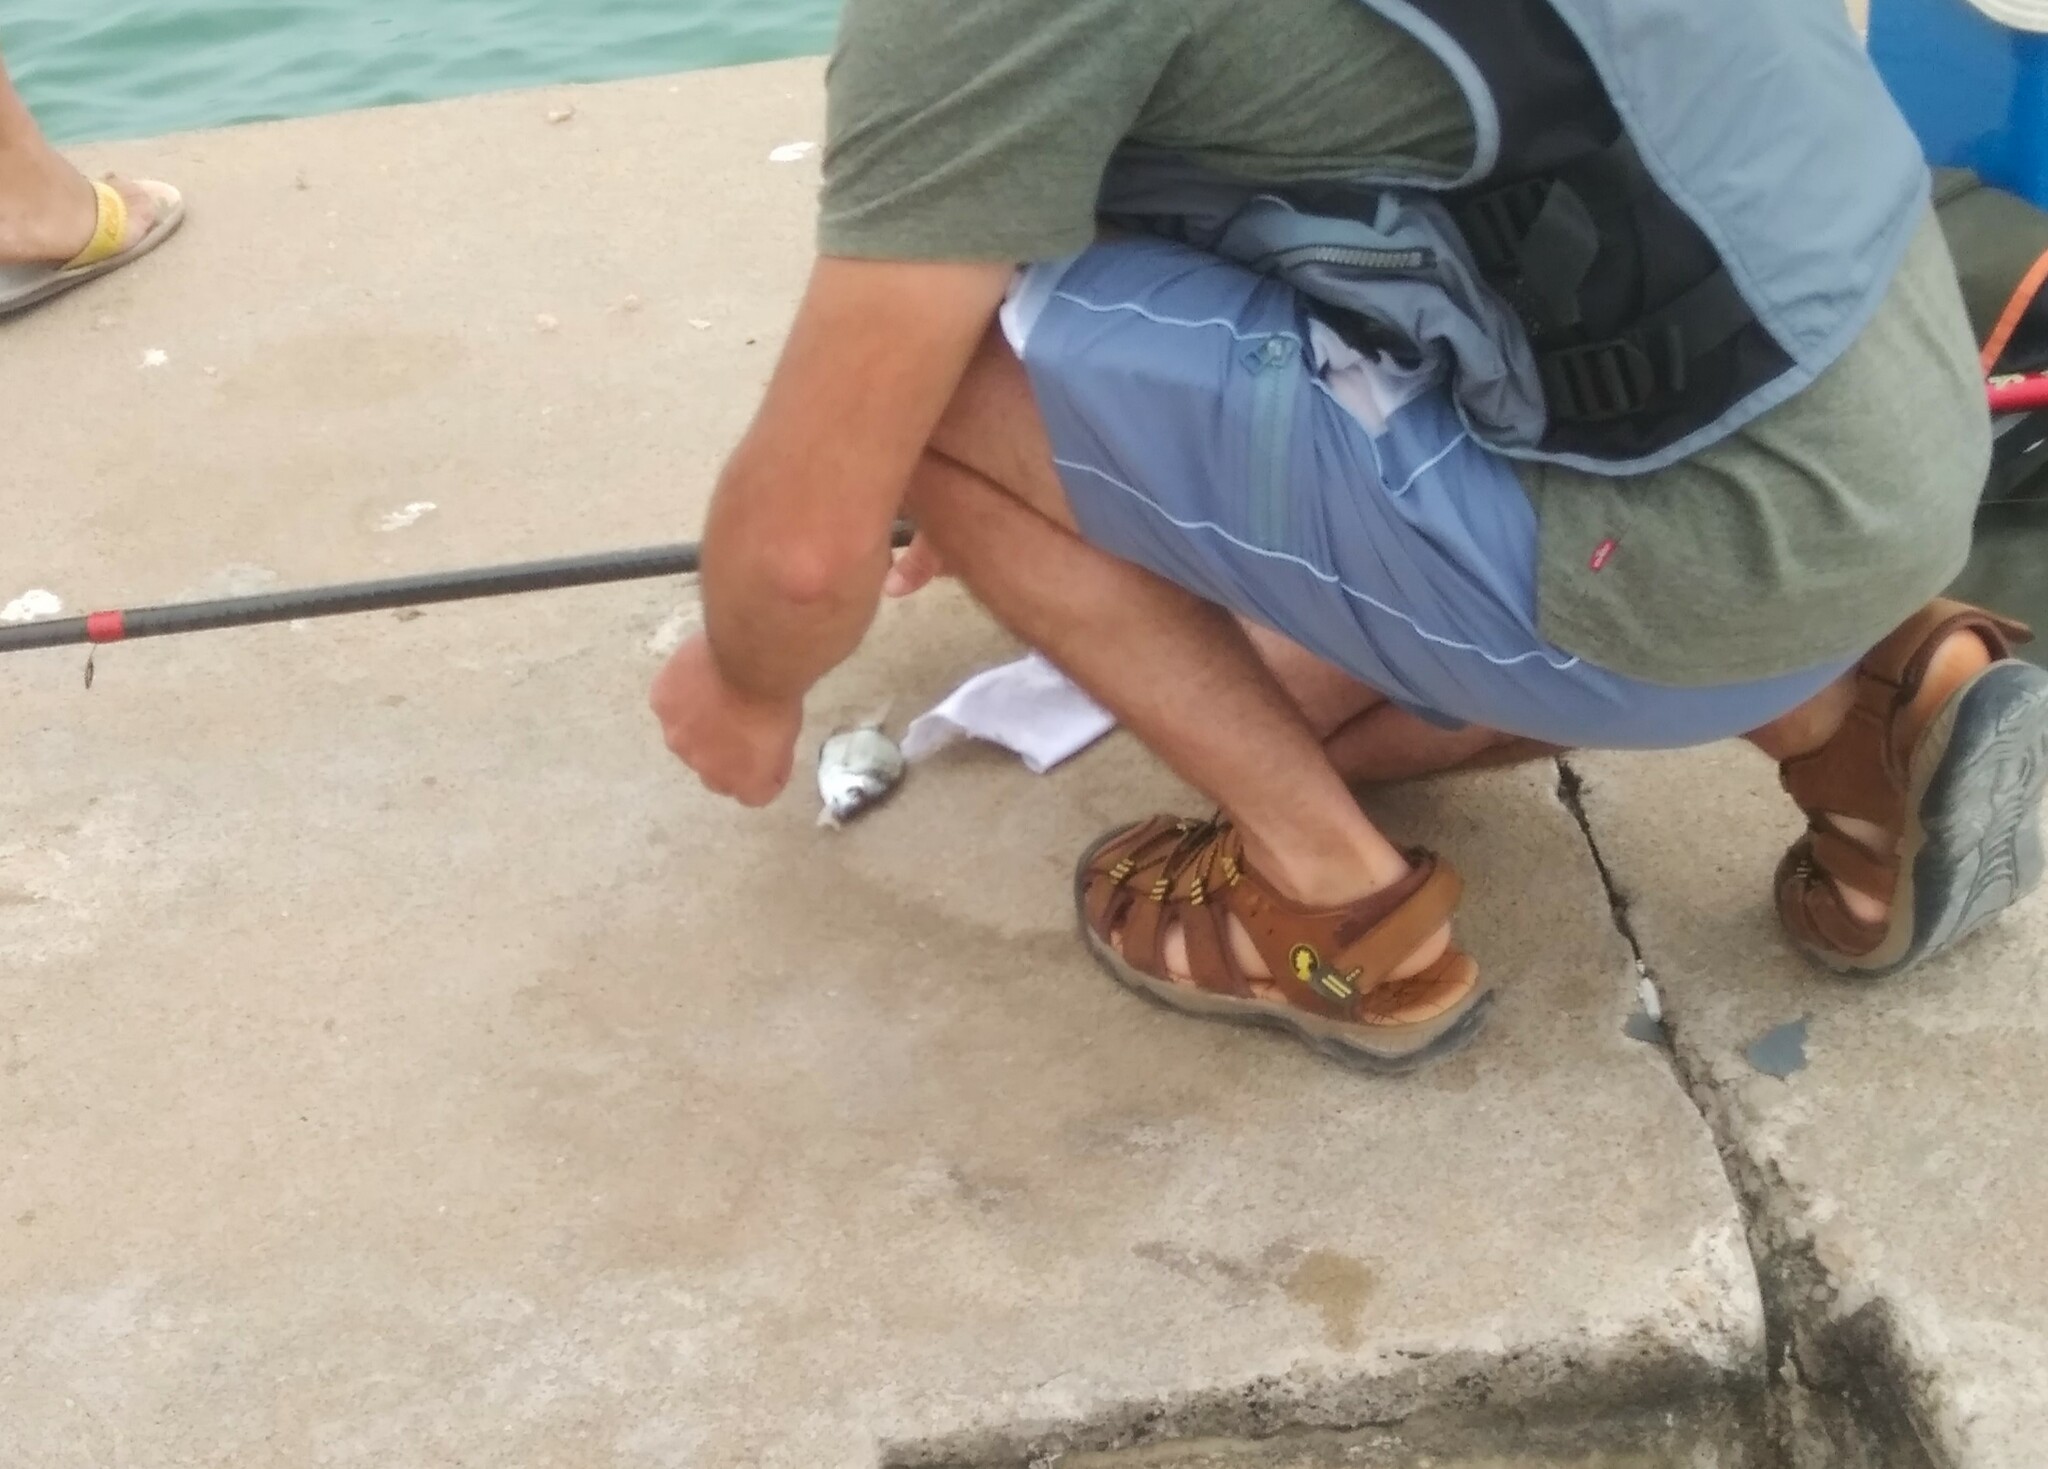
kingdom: Animalia
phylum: Chordata
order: Perciformes
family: Sparidae
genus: Diplodus
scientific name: Diplodus vulgaris
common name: Common two-banded seabream
